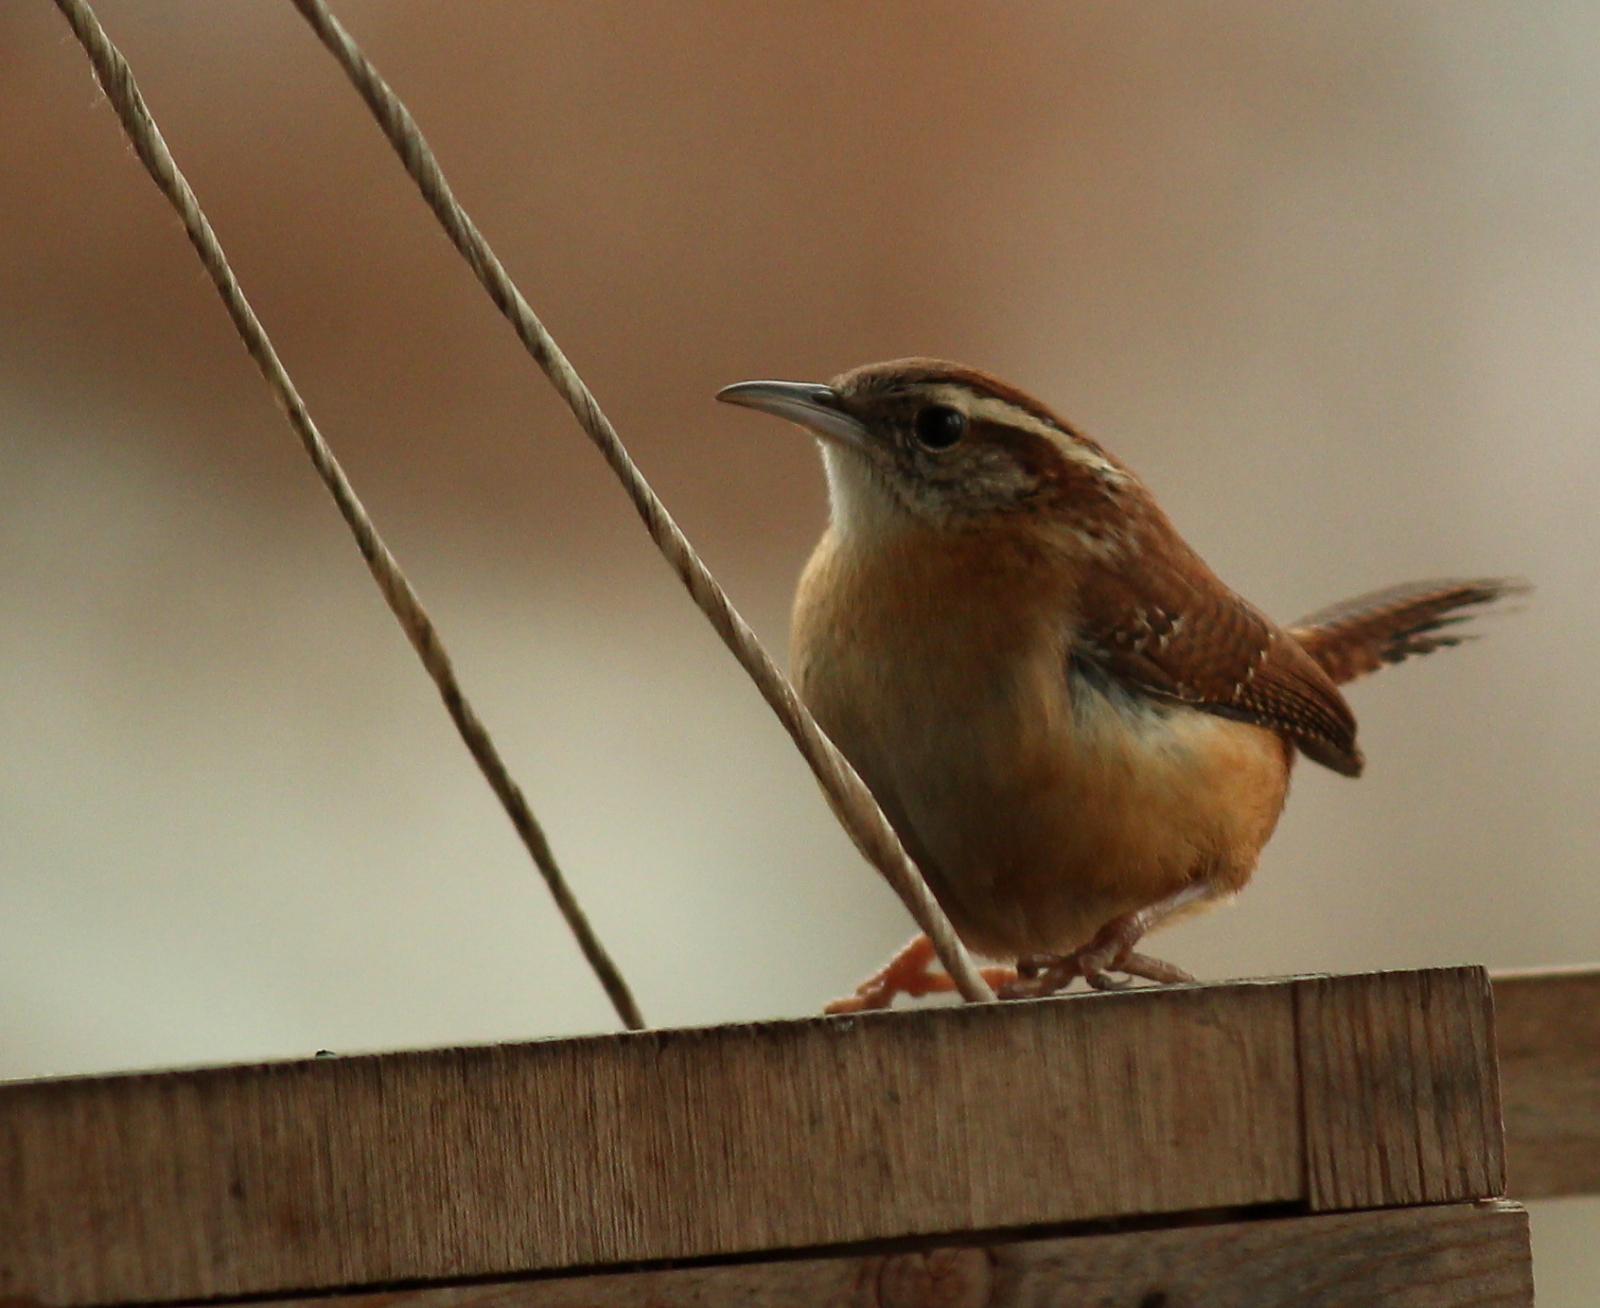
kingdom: Animalia
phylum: Chordata
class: Aves
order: Passeriformes
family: Troglodytidae
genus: Thryothorus
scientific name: Thryothorus ludovicianus
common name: Carolina wren
